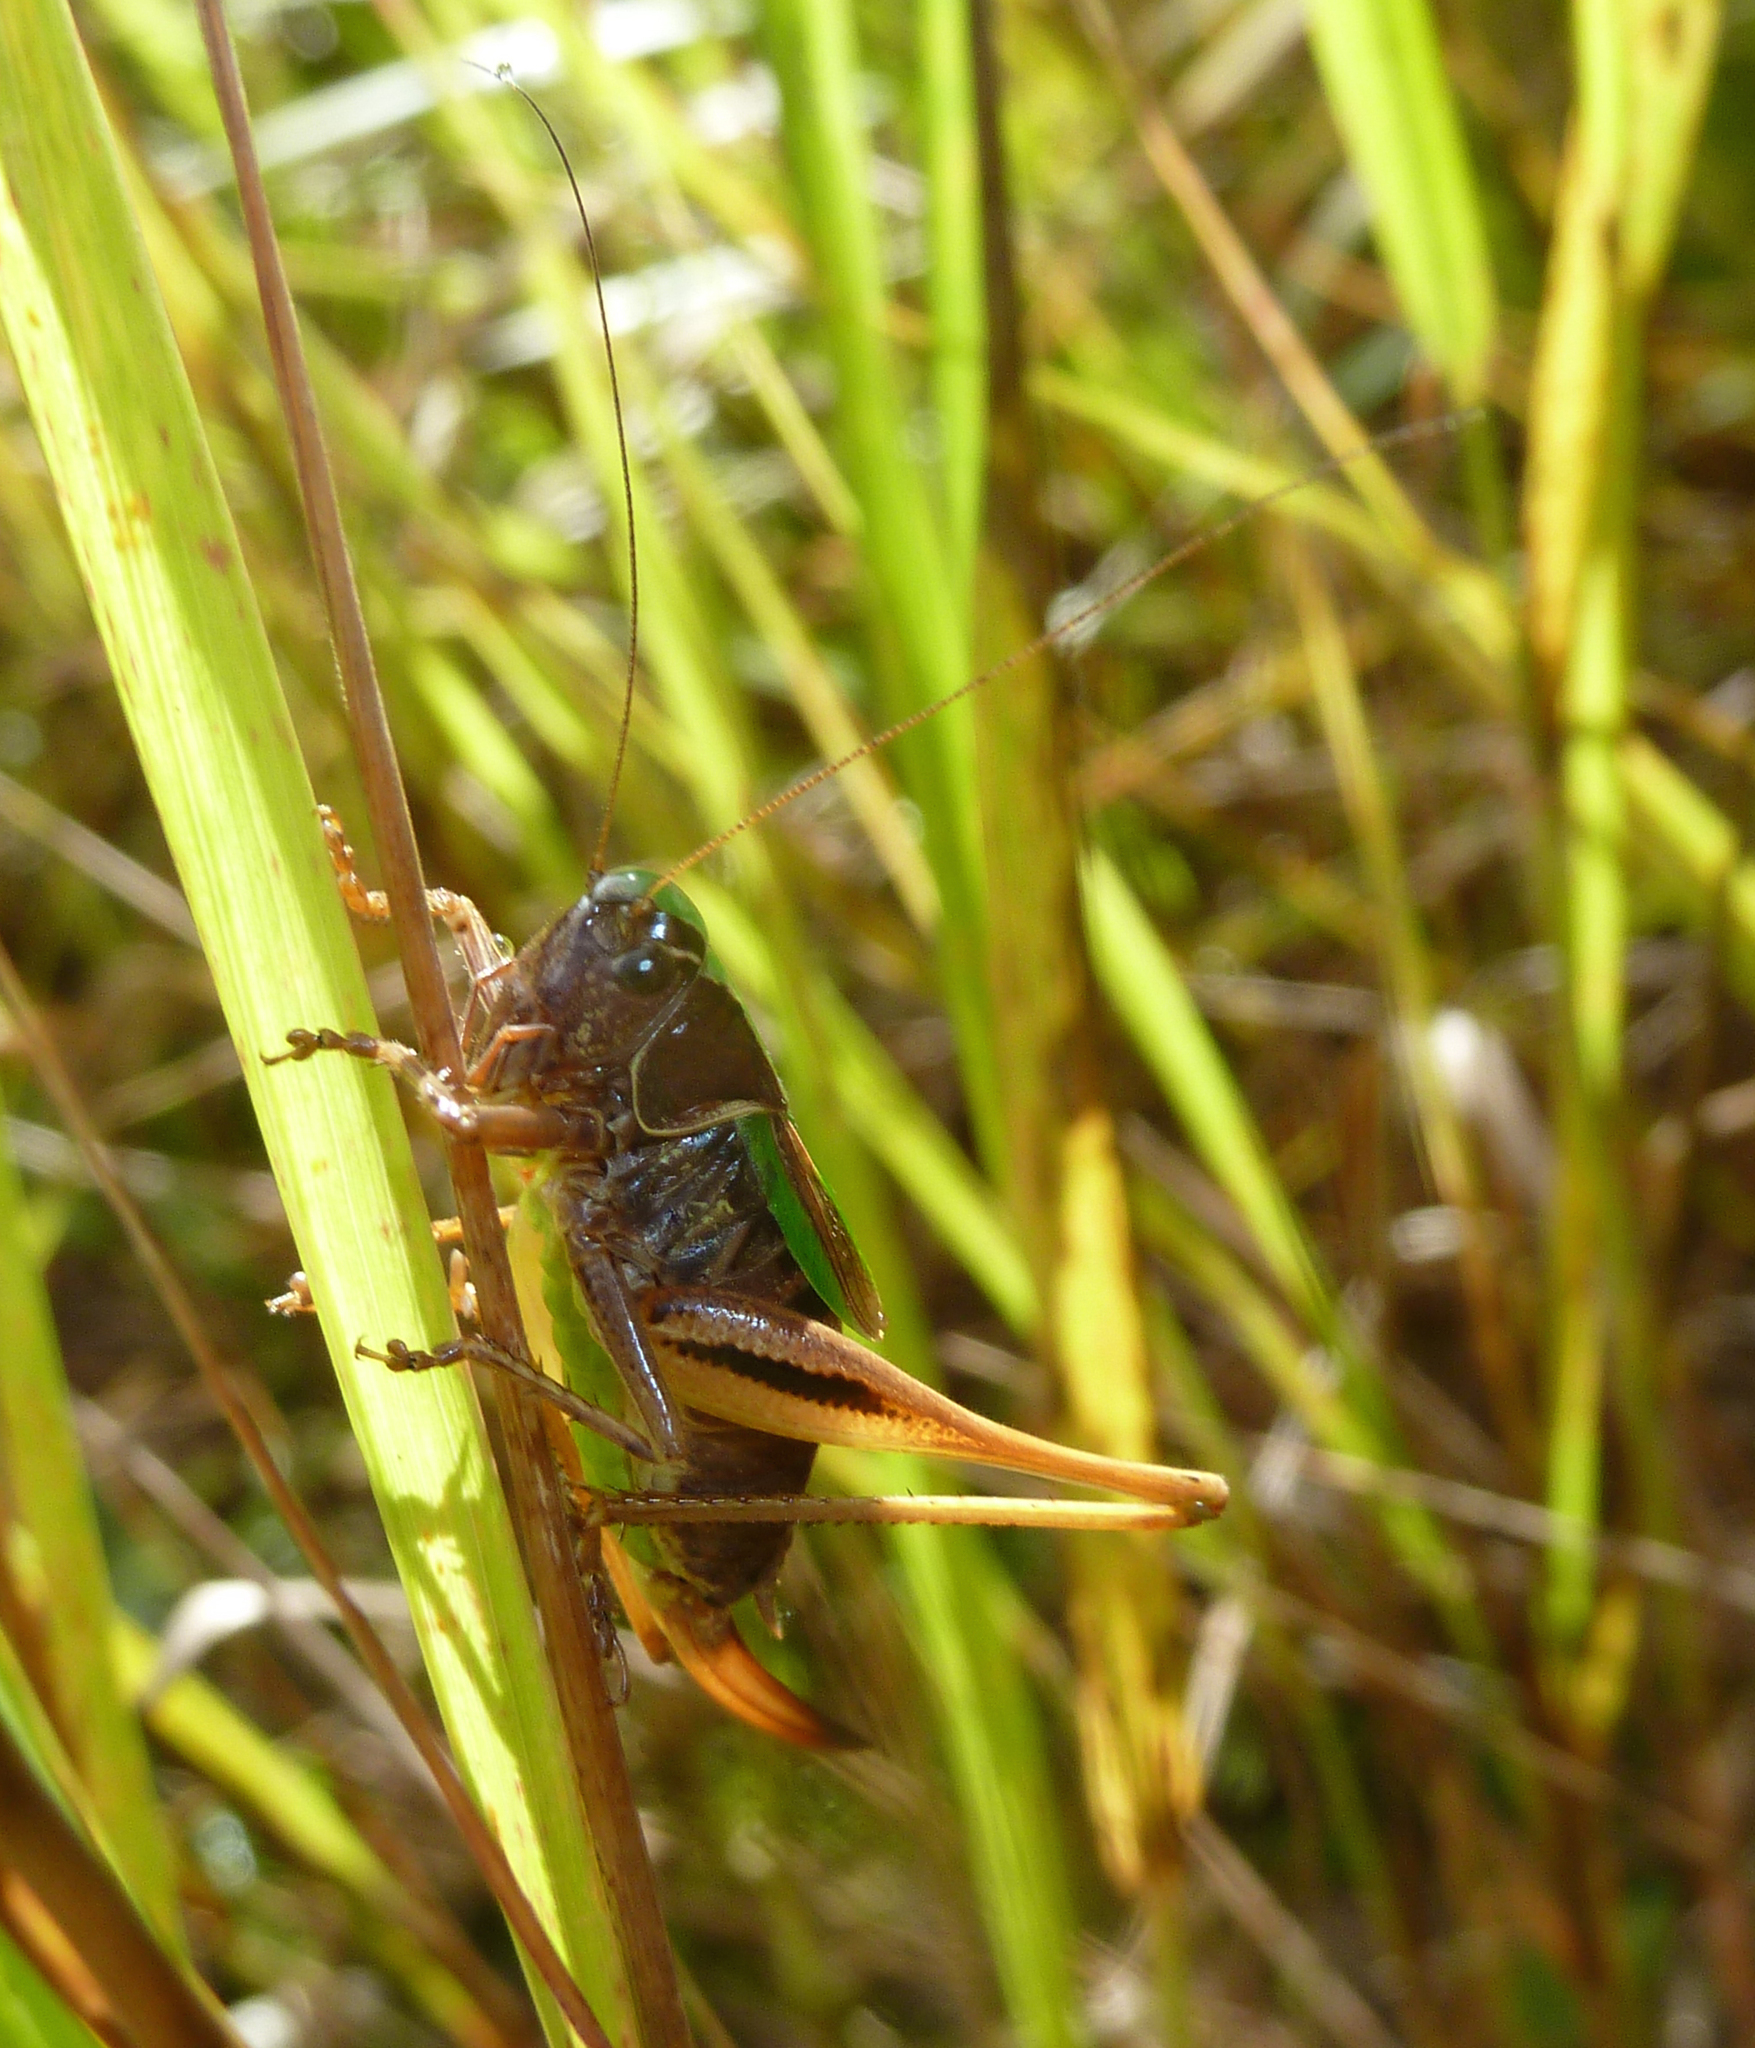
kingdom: Animalia
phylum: Arthropoda
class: Insecta
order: Orthoptera
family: Tettigoniidae
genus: Metrioptera
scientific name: Metrioptera brachyptera
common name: Bog bush-cricket
